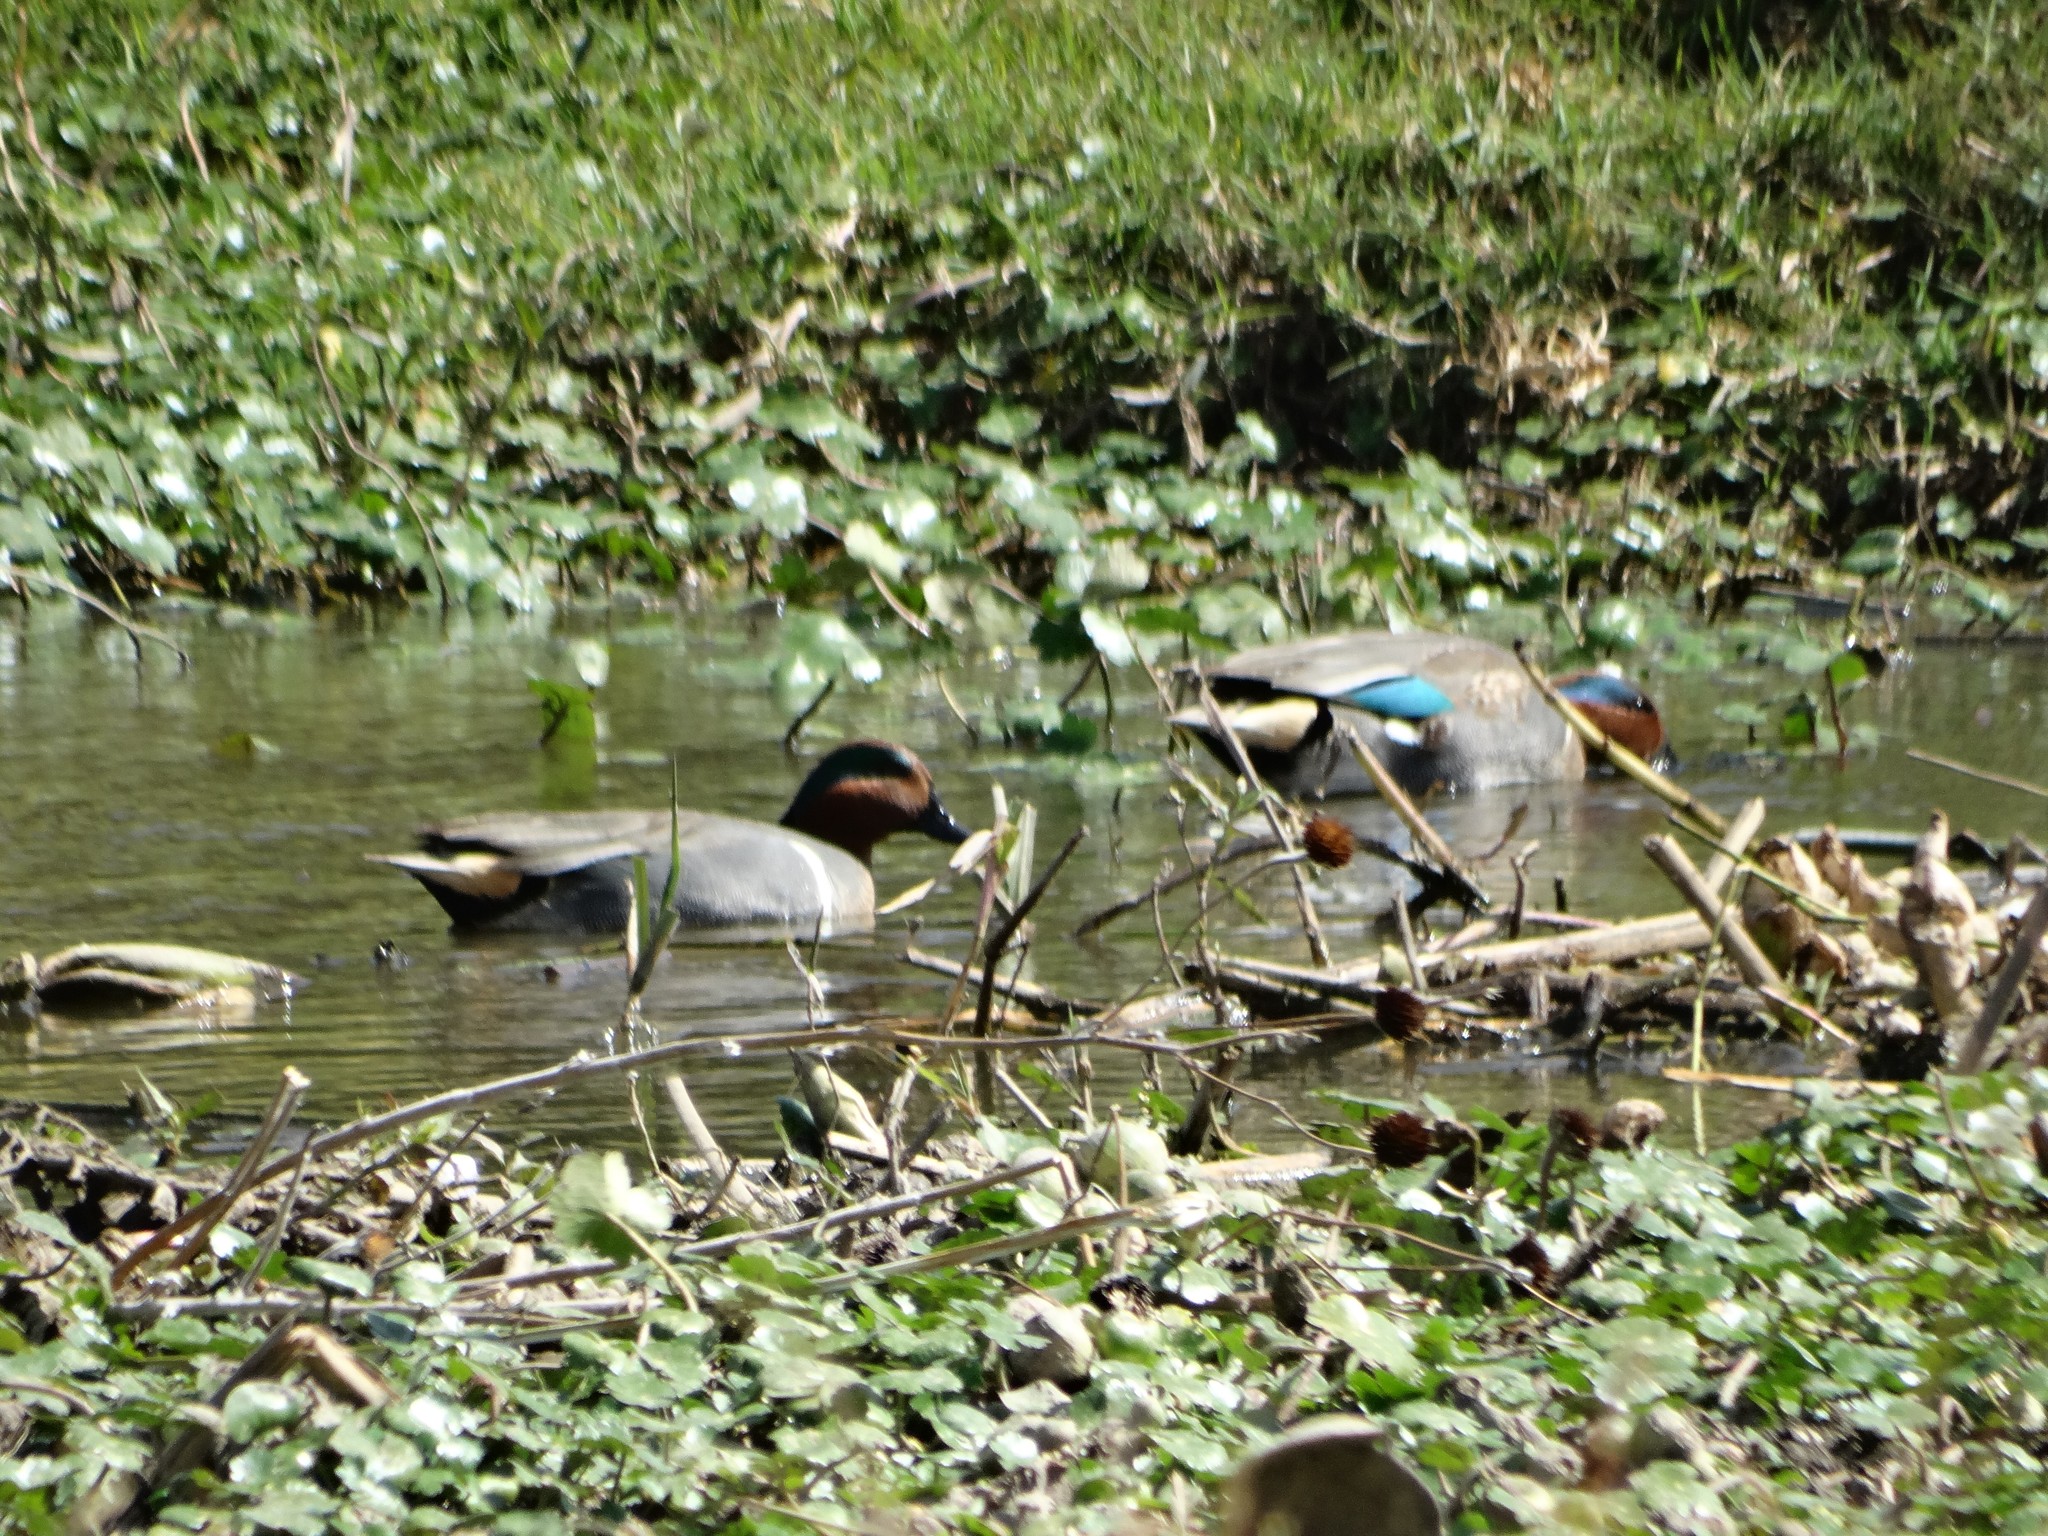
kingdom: Animalia
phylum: Chordata
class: Aves
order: Anseriformes
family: Anatidae
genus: Anas
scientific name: Anas crecca
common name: Eurasian teal
